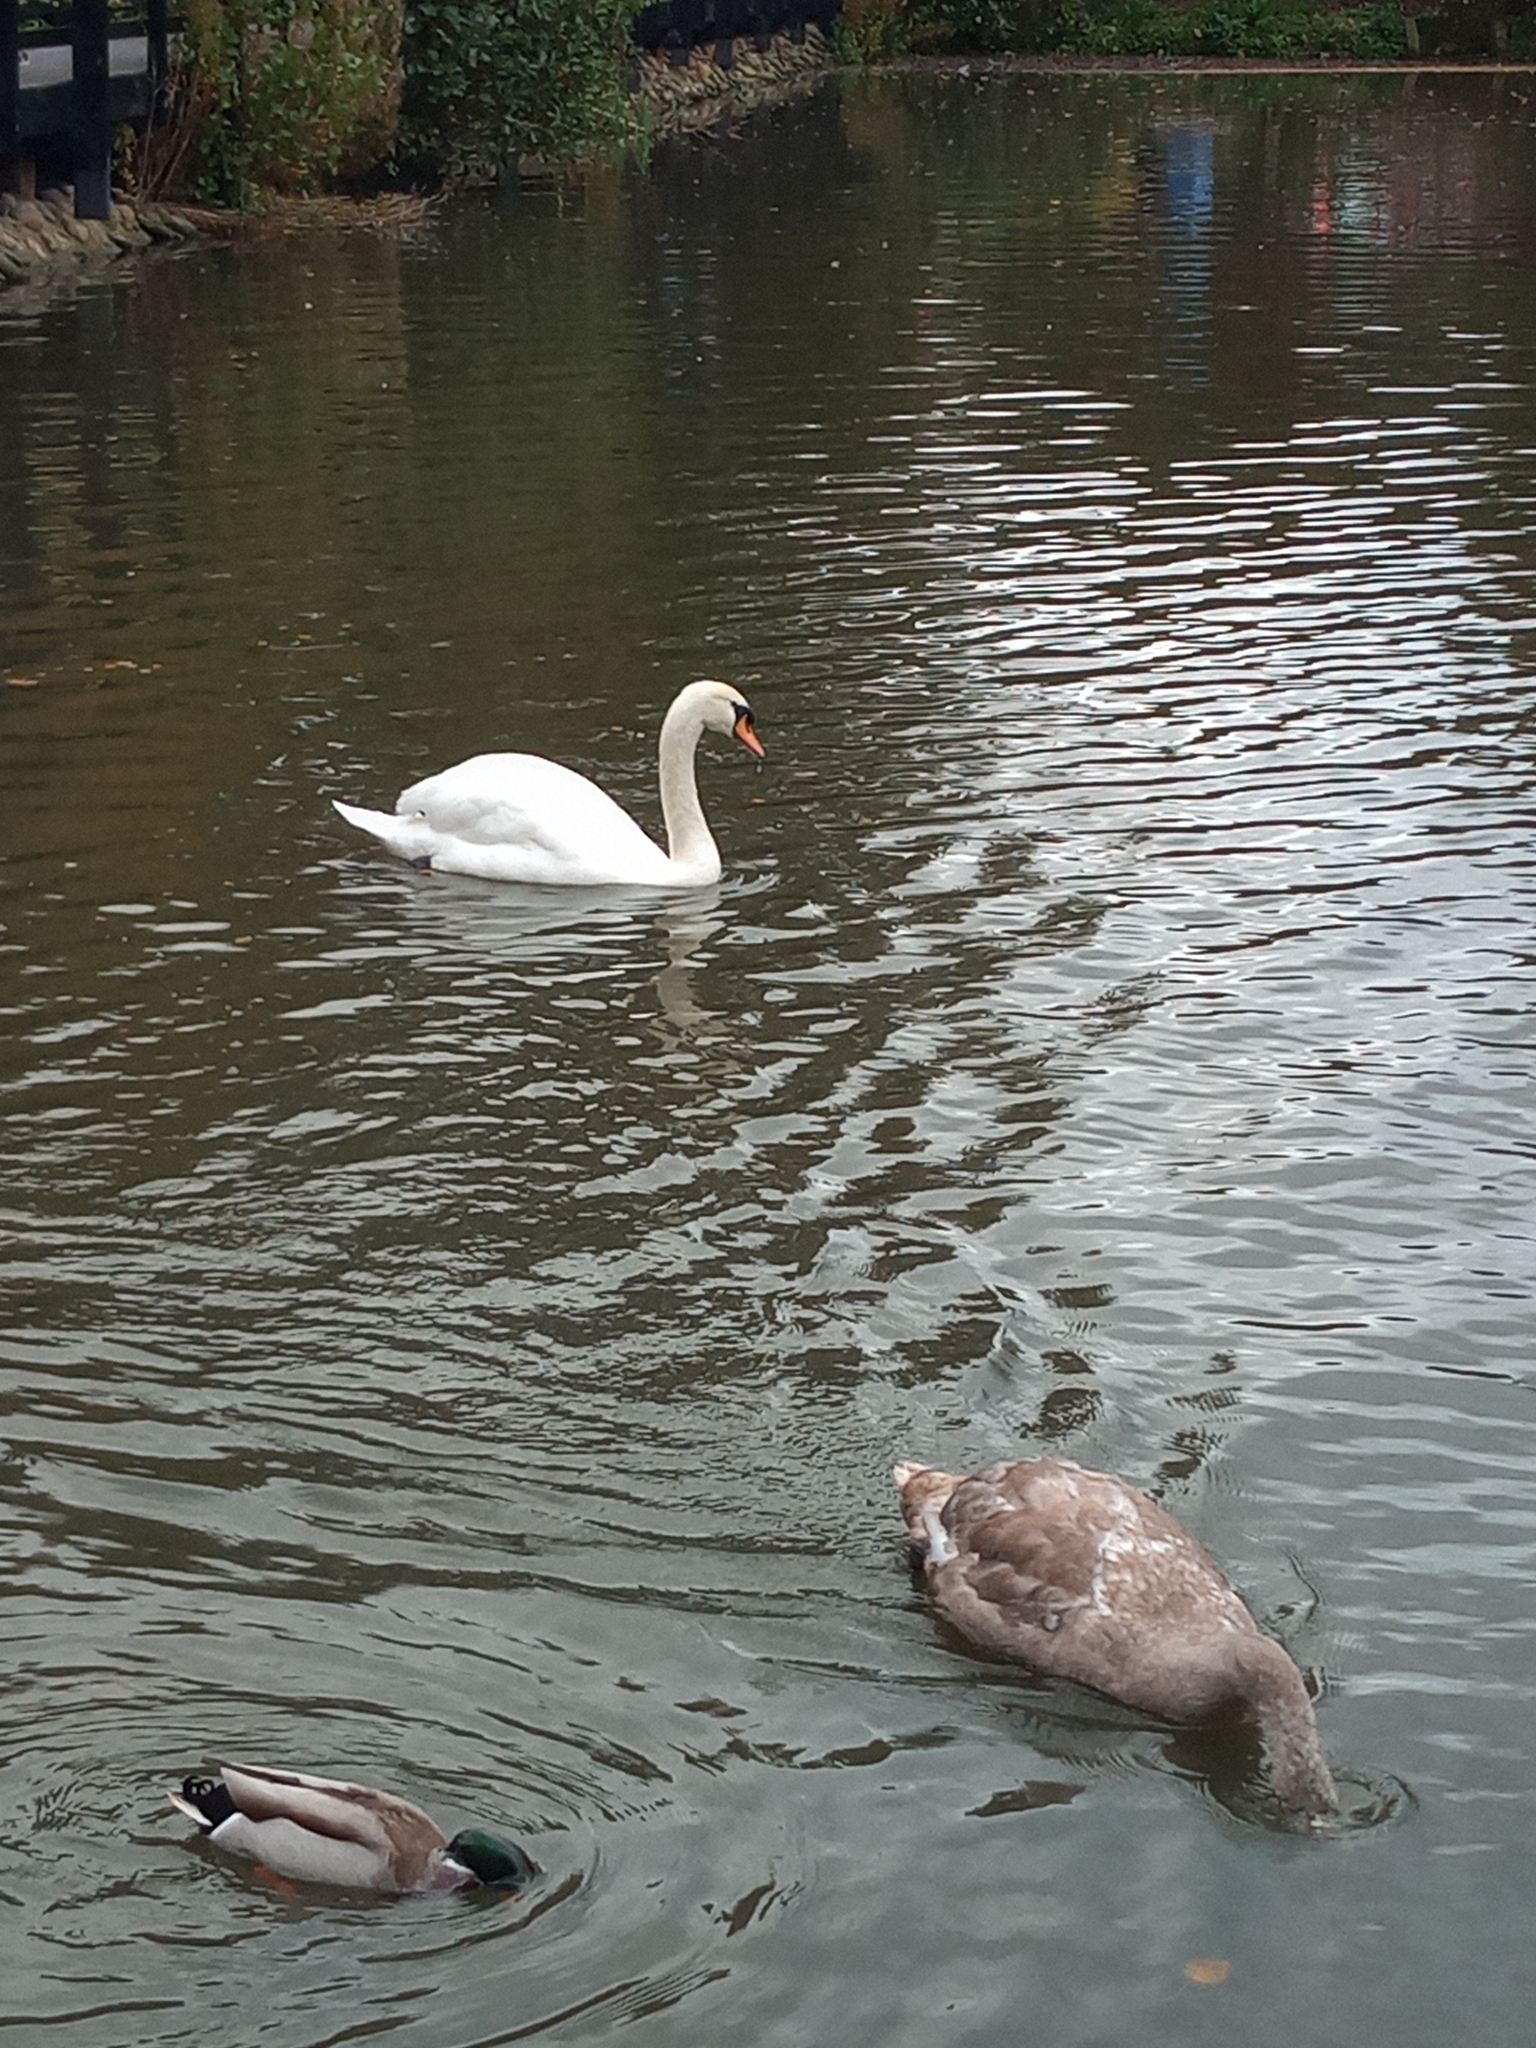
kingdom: Animalia
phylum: Chordata
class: Aves
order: Anseriformes
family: Anatidae
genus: Cygnus
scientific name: Cygnus olor
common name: Mute swan
